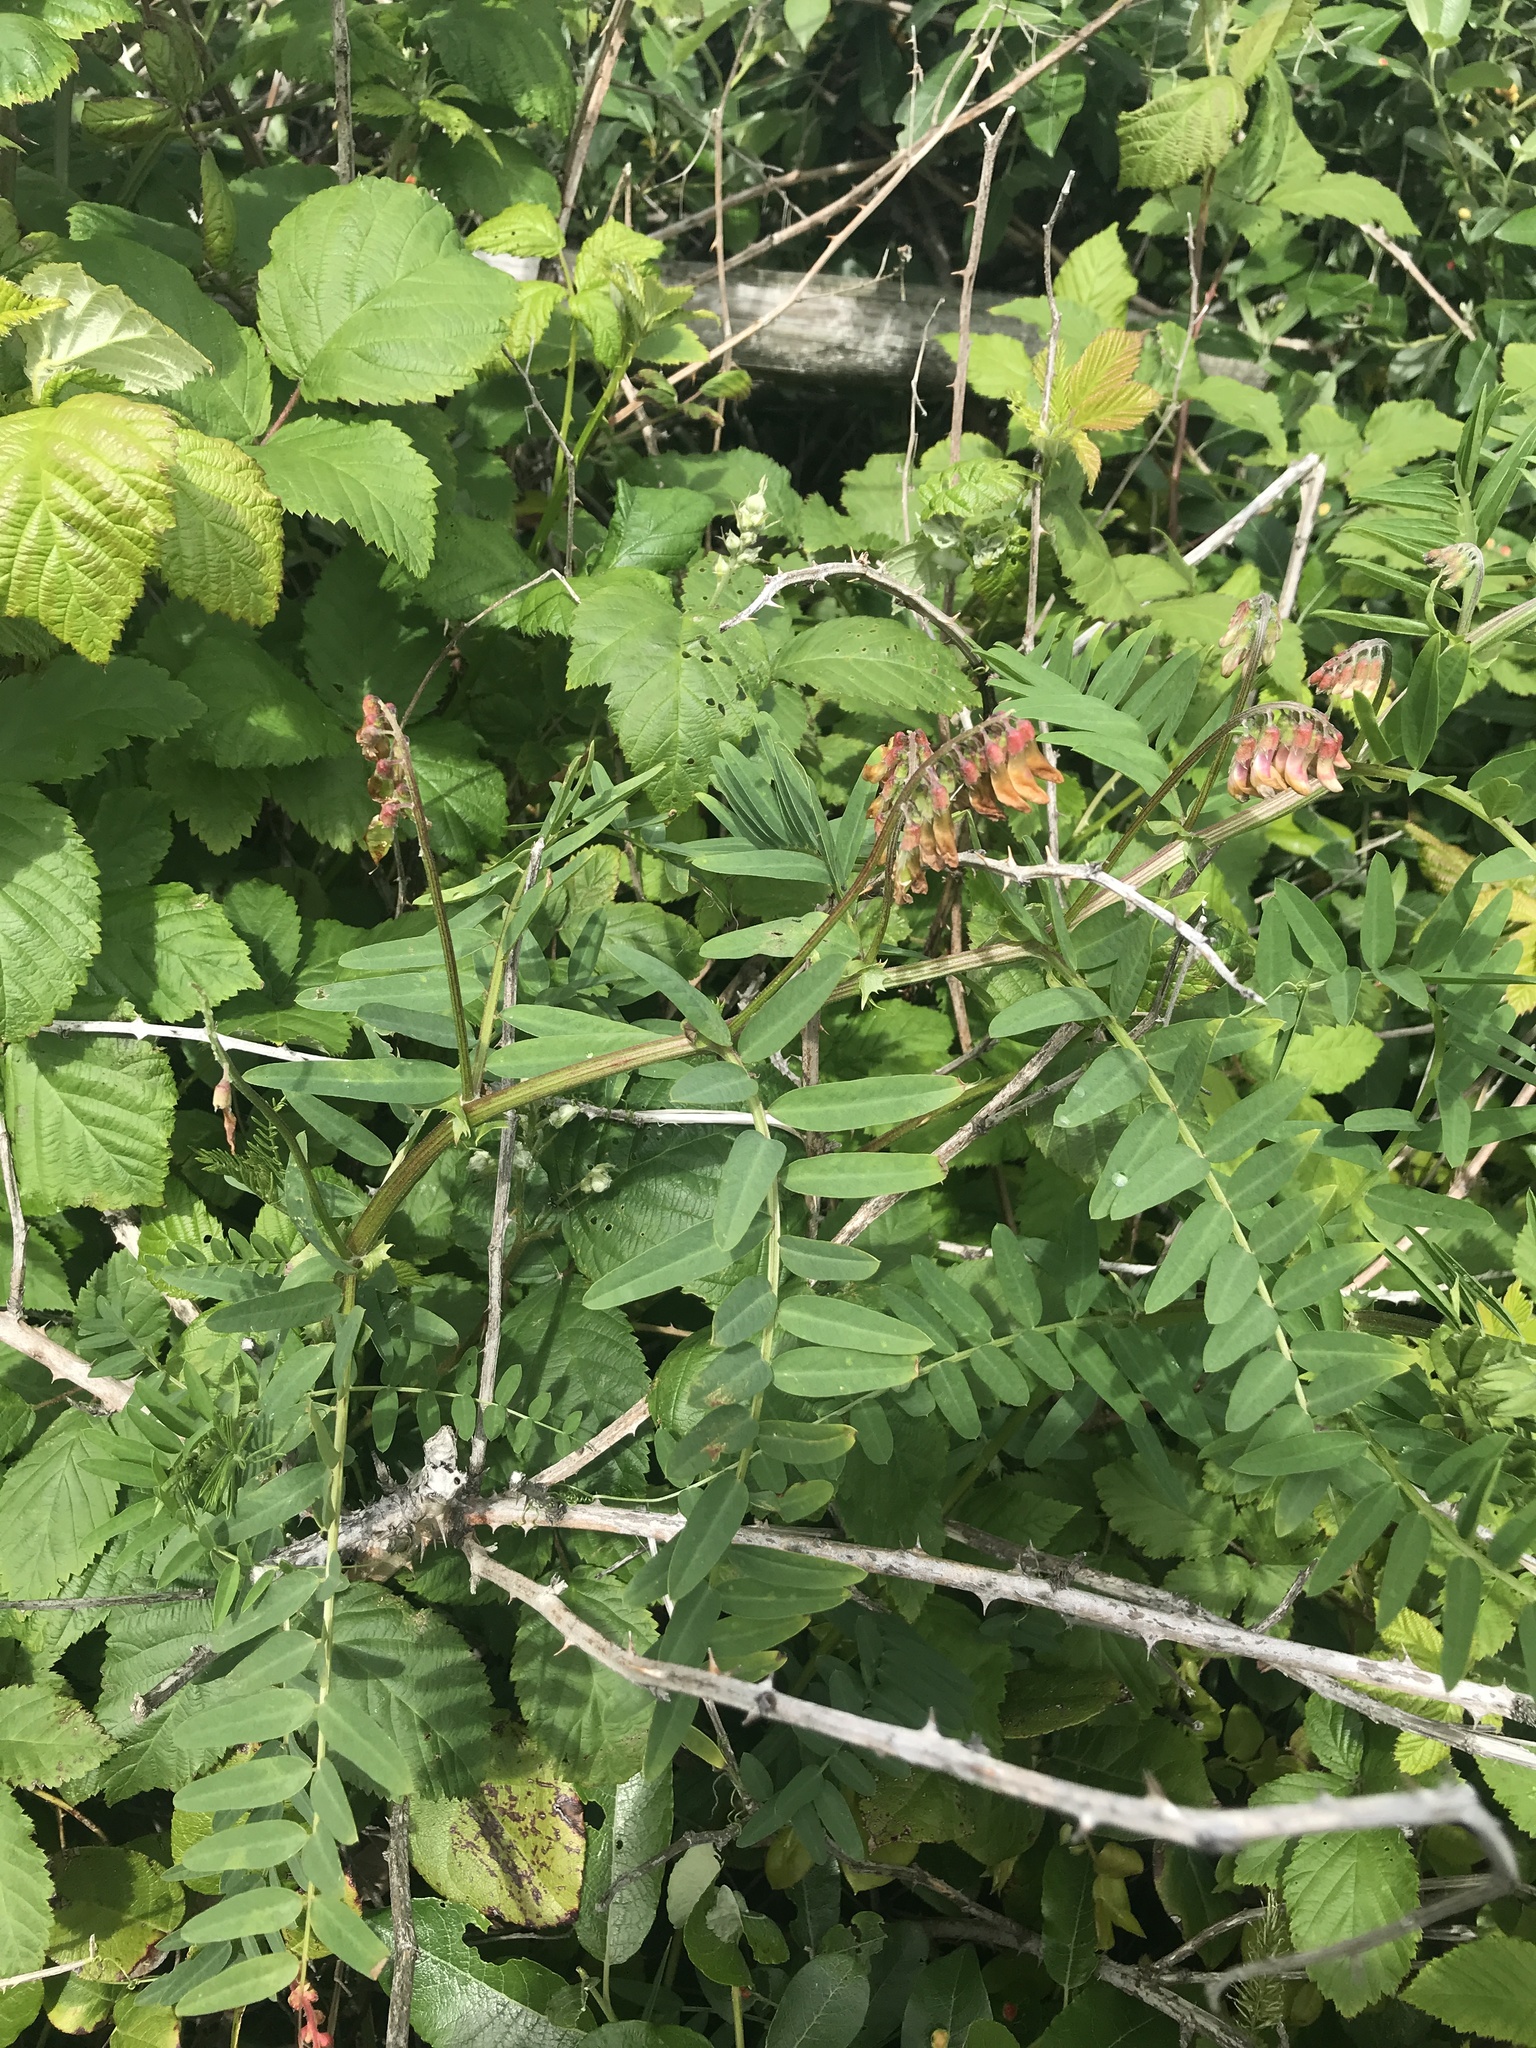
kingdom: Plantae
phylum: Tracheophyta
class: Magnoliopsida
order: Fabales
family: Fabaceae
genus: Vicia
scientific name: Vicia
